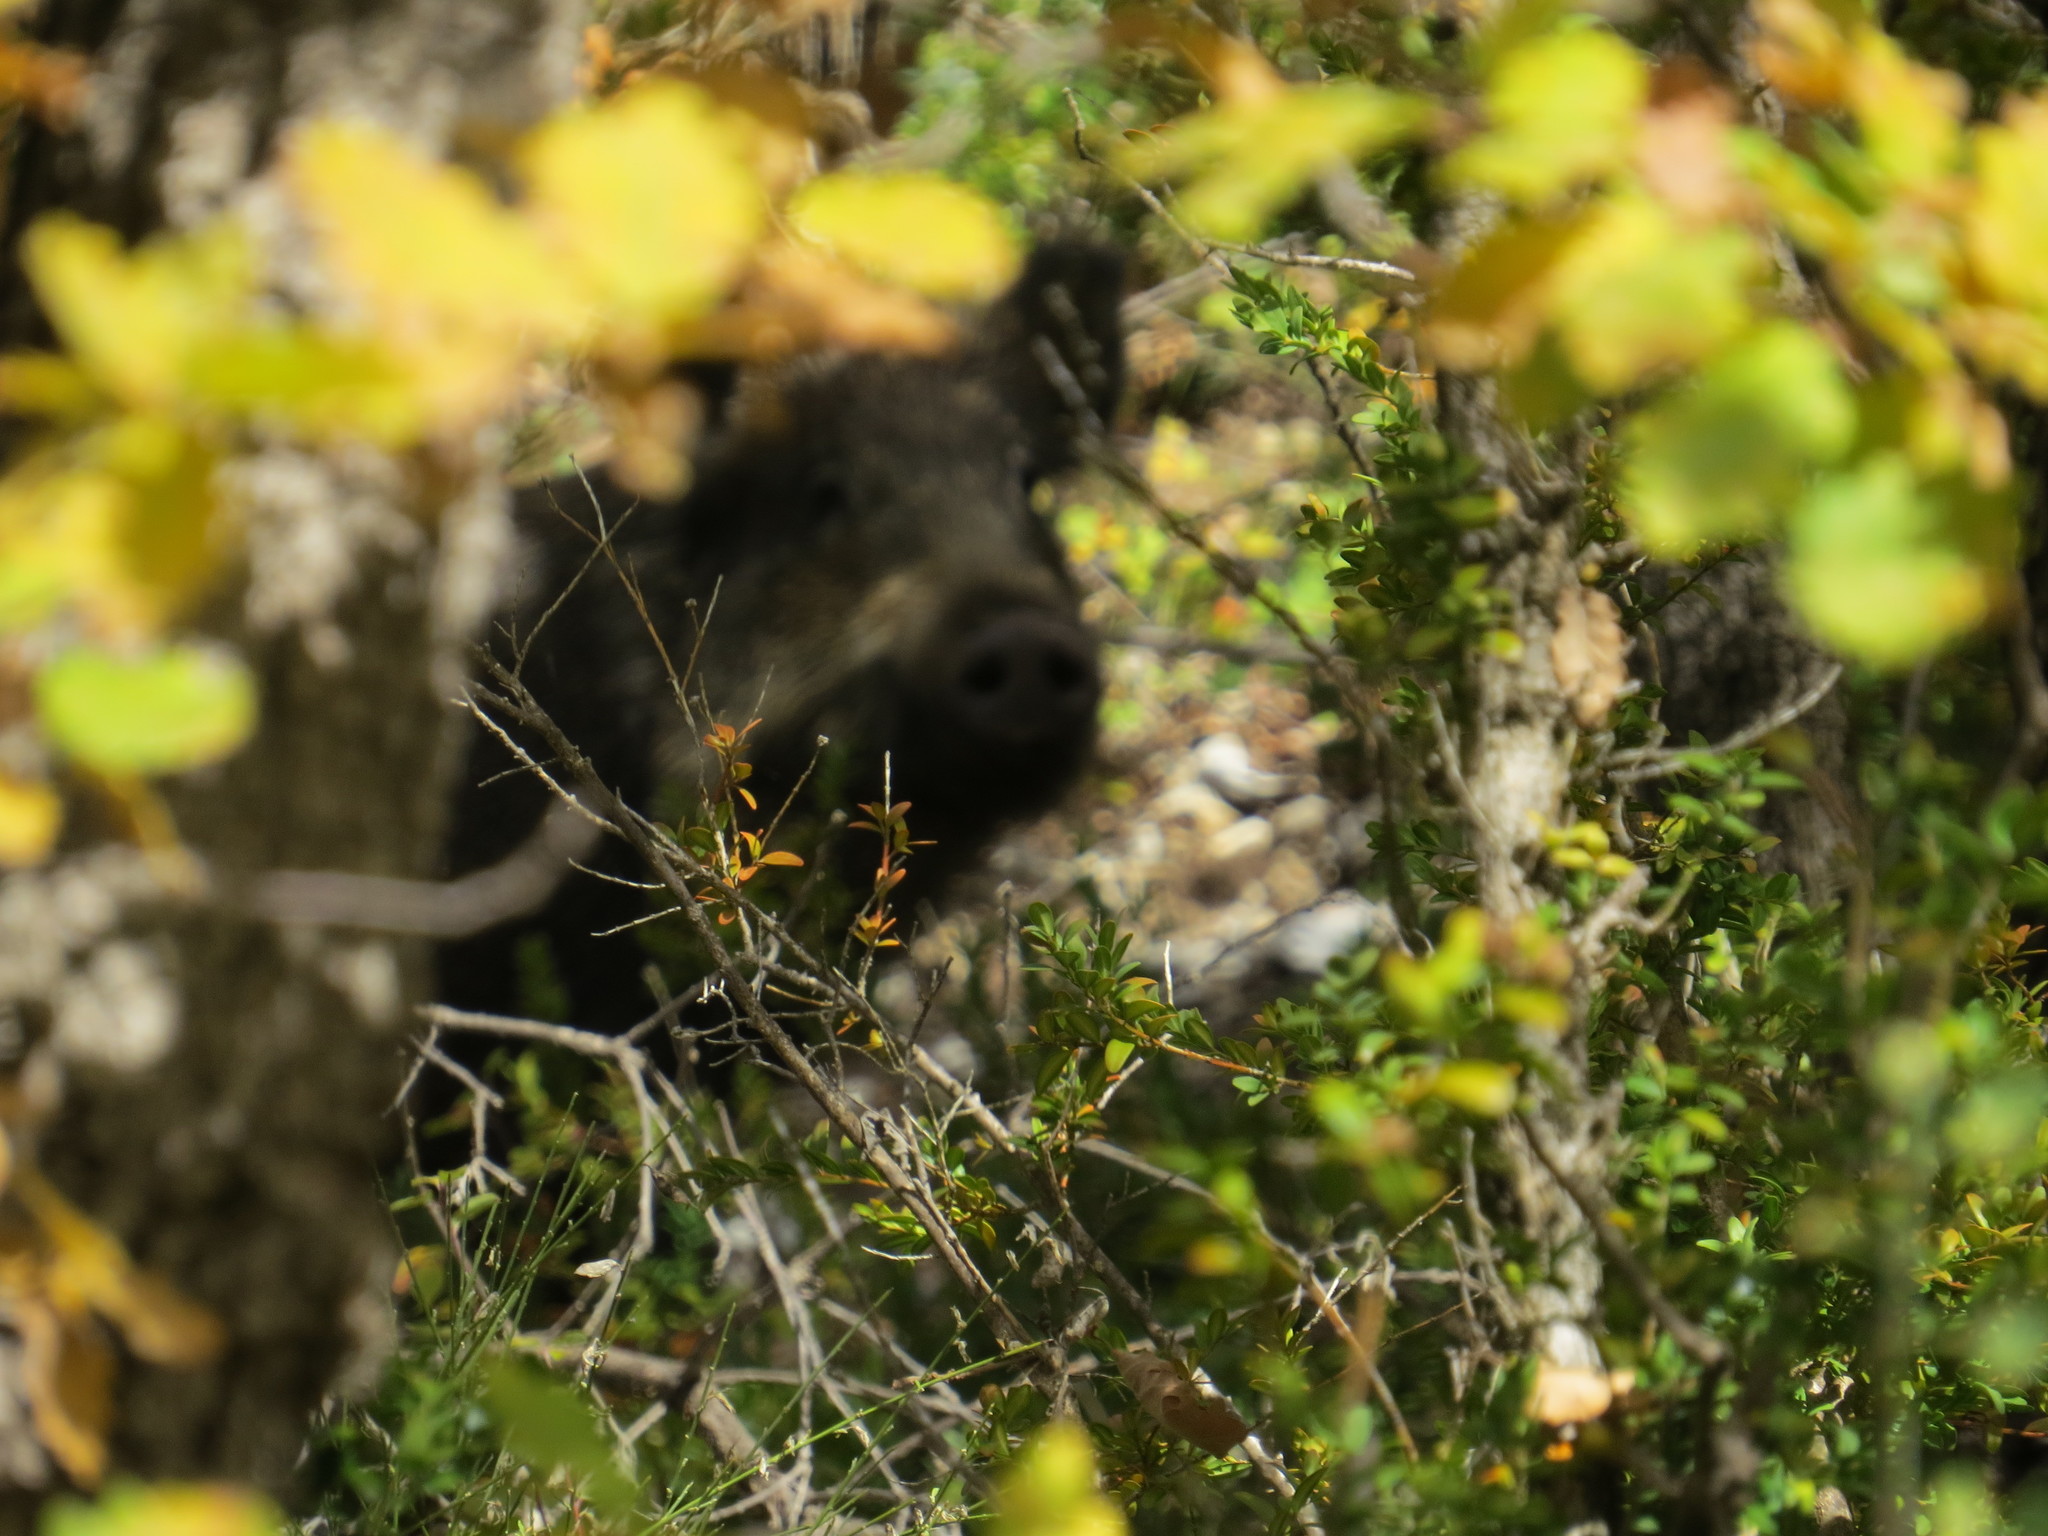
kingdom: Animalia
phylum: Chordata
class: Mammalia
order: Artiodactyla
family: Suidae
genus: Sus
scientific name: Sus scrofa
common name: Wild boar
